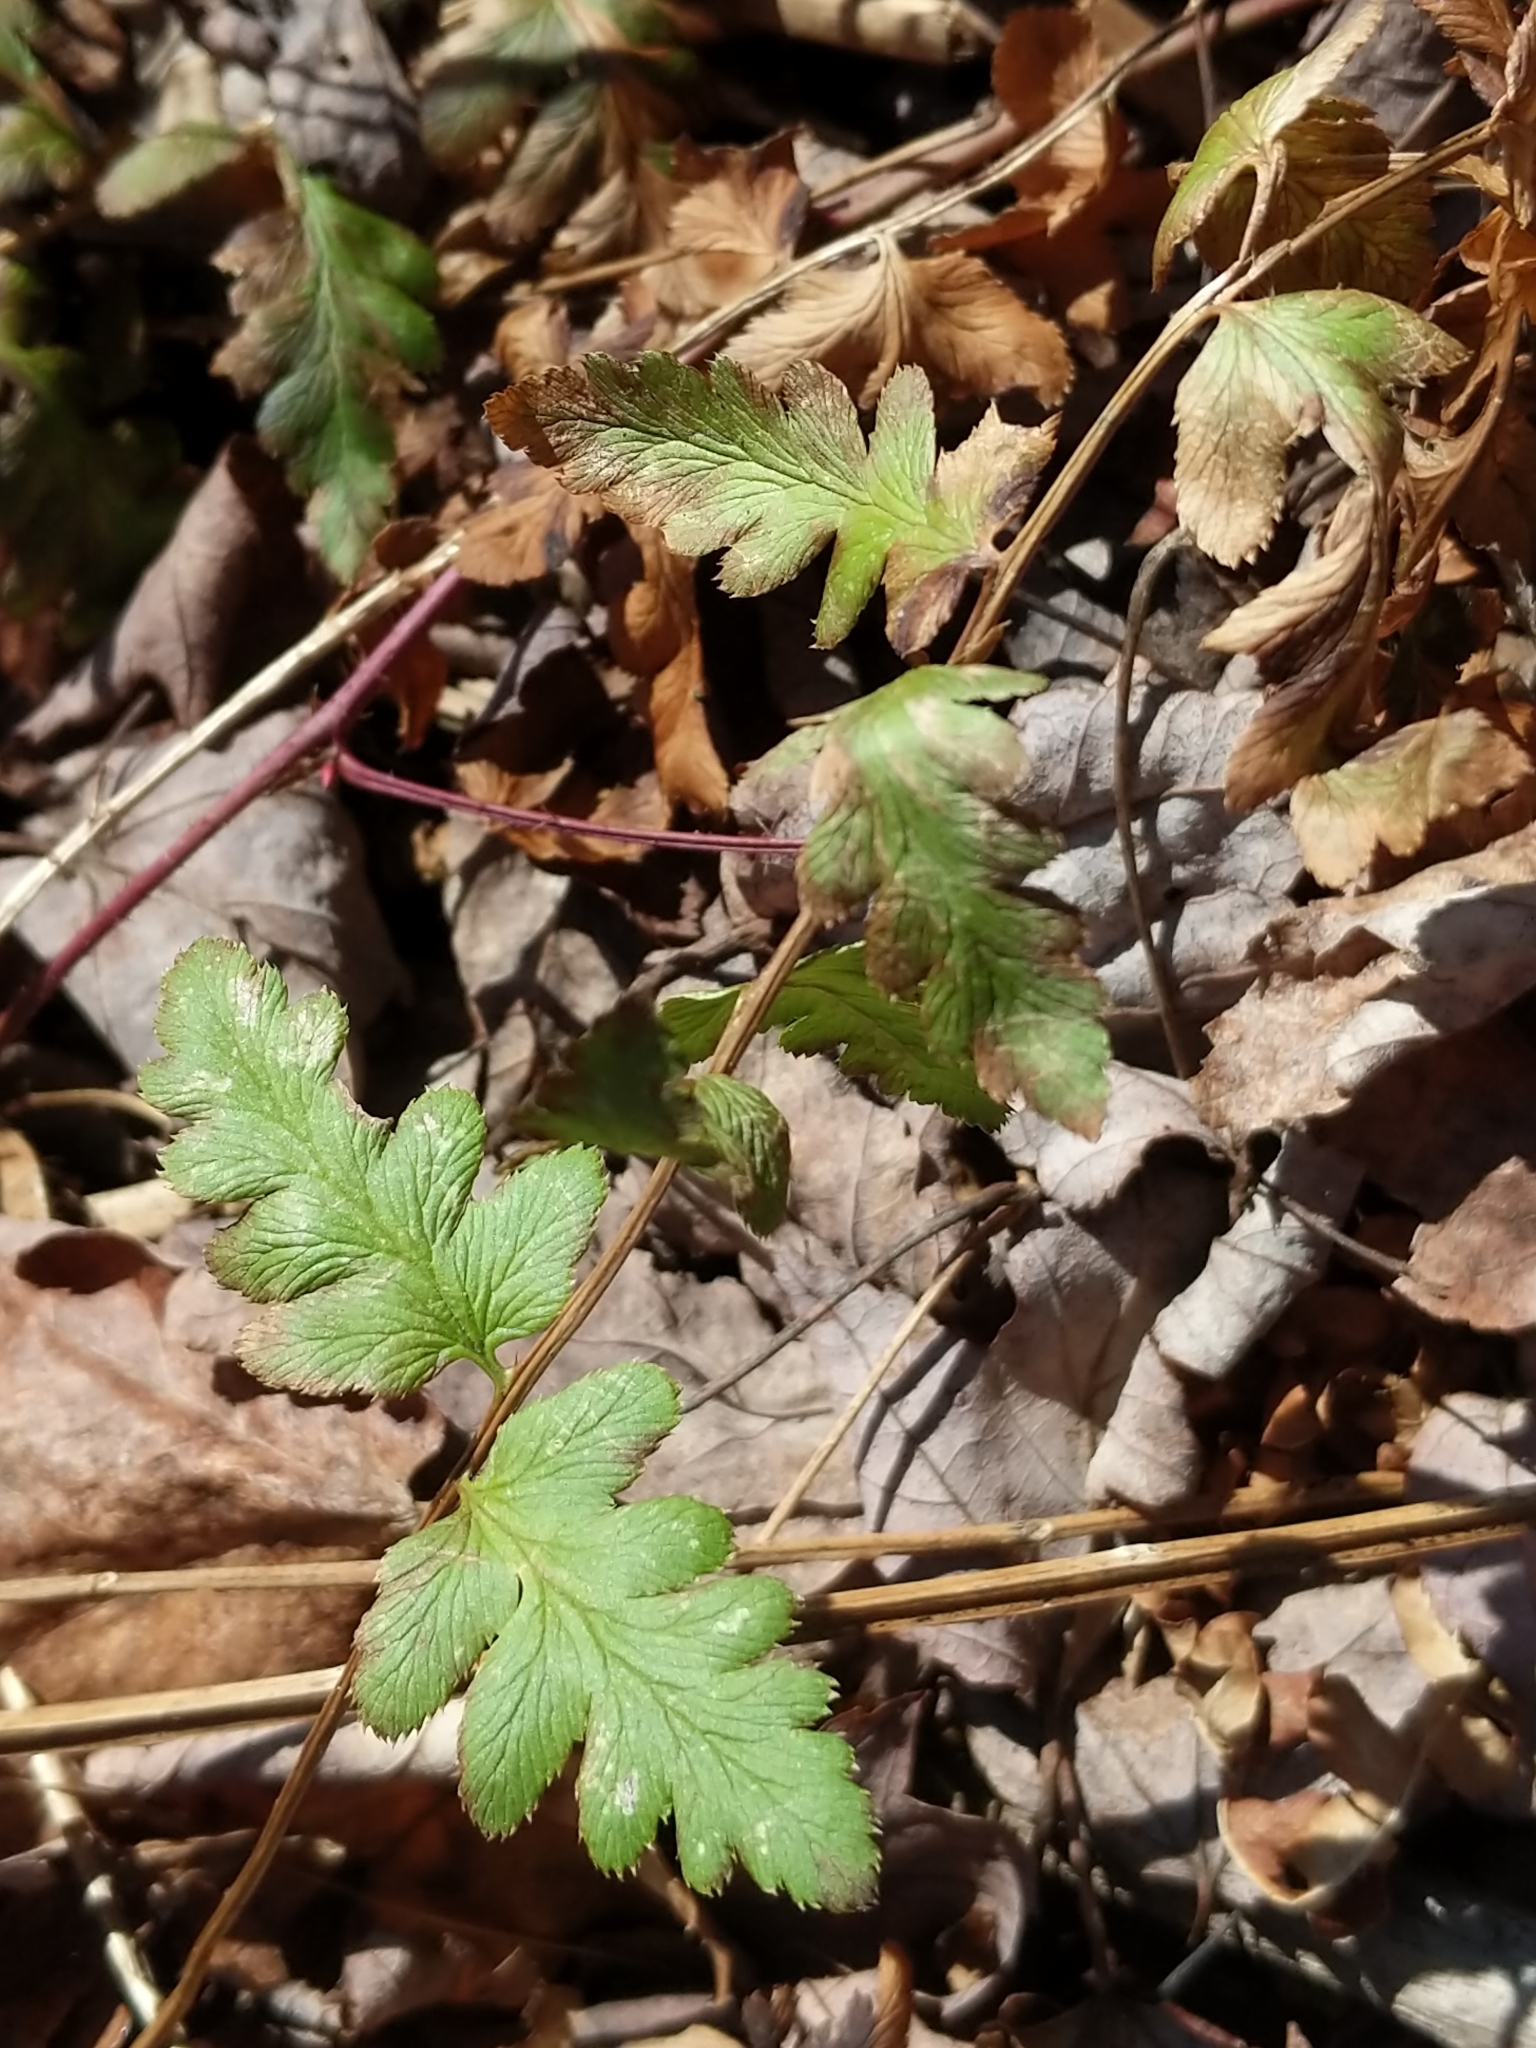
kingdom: Plantae
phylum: Tracheophyta
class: Polypodiopsida
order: Polypodiales
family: Dryopteridaceae
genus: Dryopteris
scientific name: Dryopteris cristata
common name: Crested wood fern
